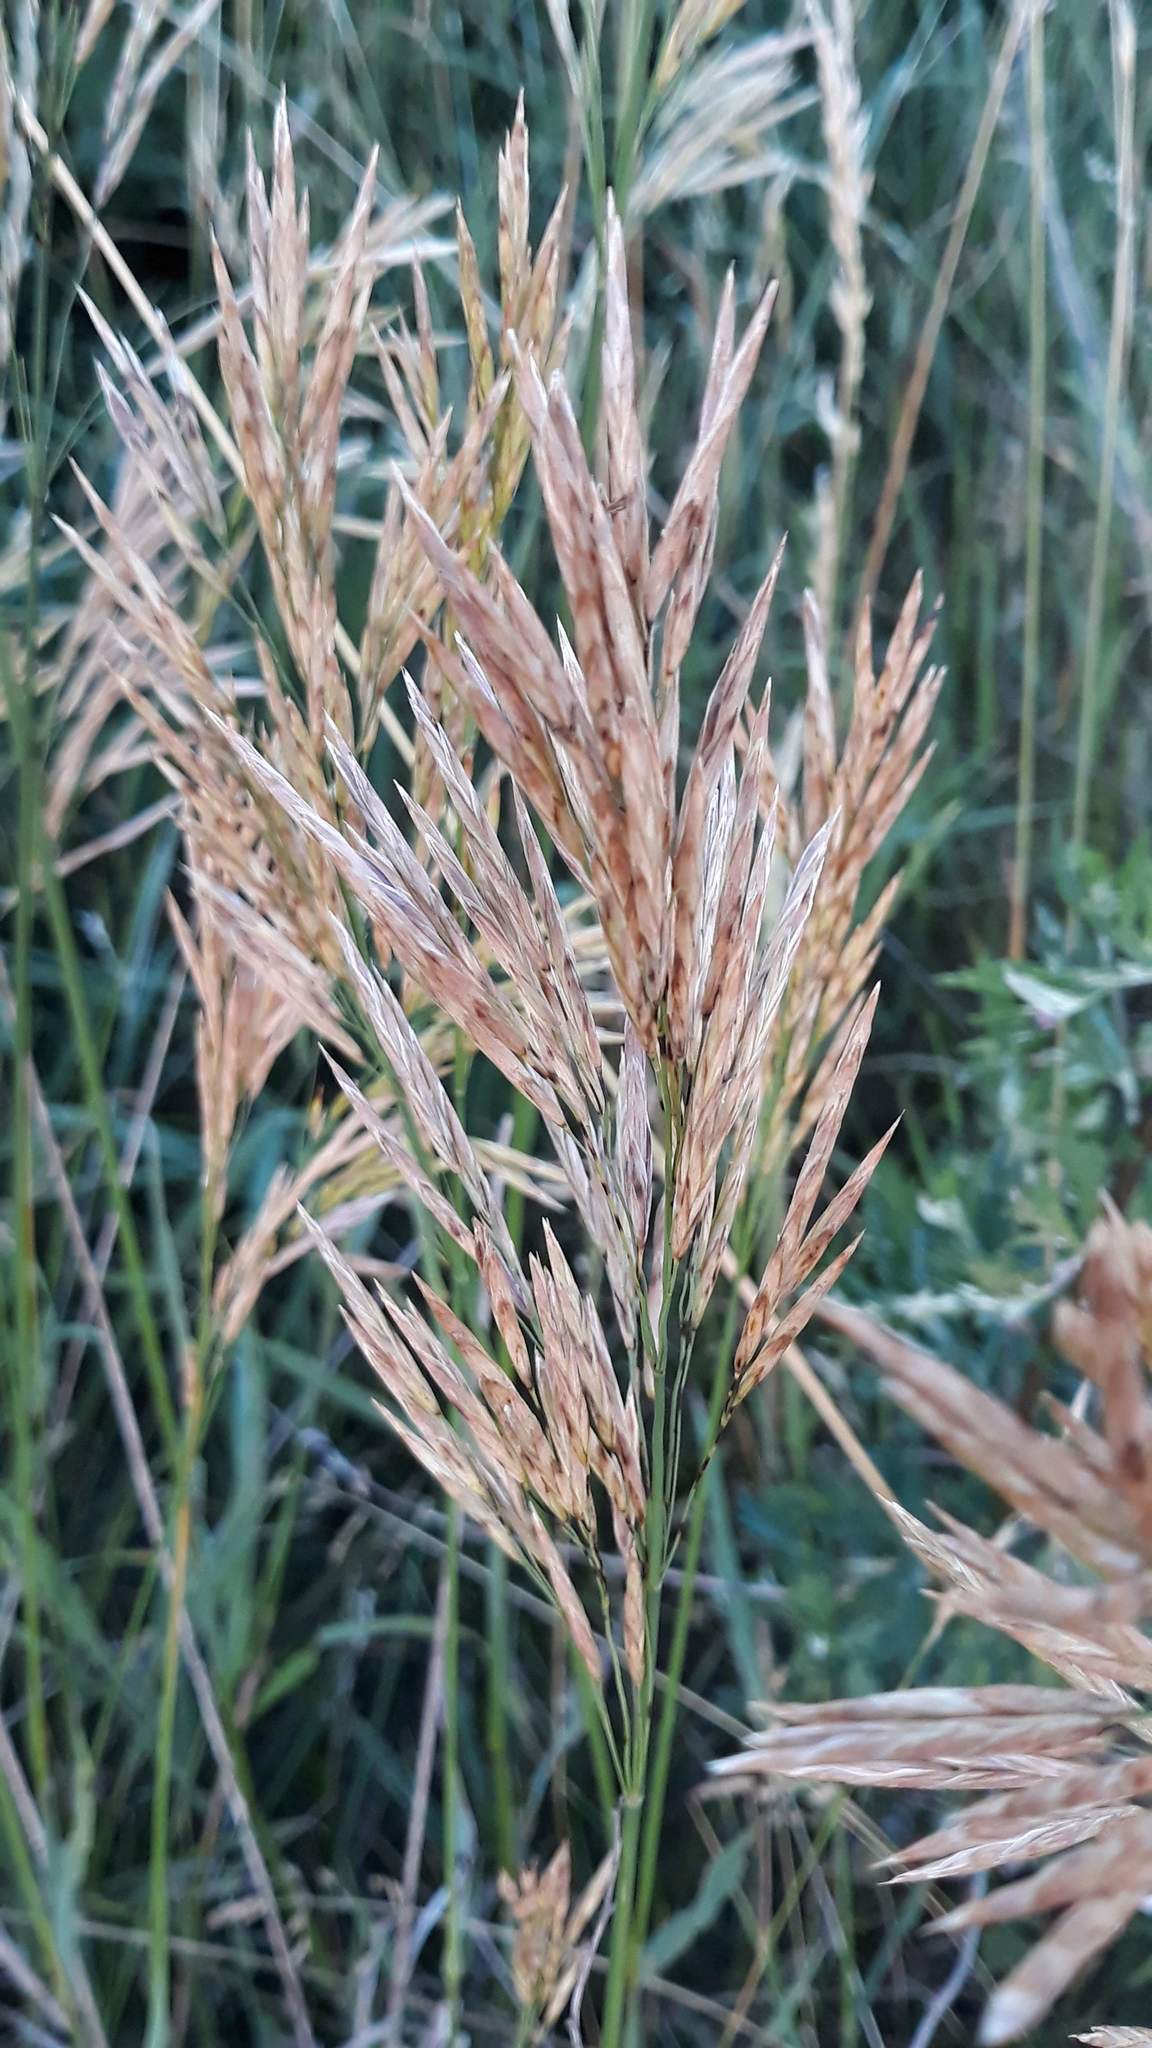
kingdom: Plantae
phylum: Tracheophyta
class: Liliopsida
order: Poales
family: Poaceae
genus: Bromus
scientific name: Bromus inermis
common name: Smooth brome
